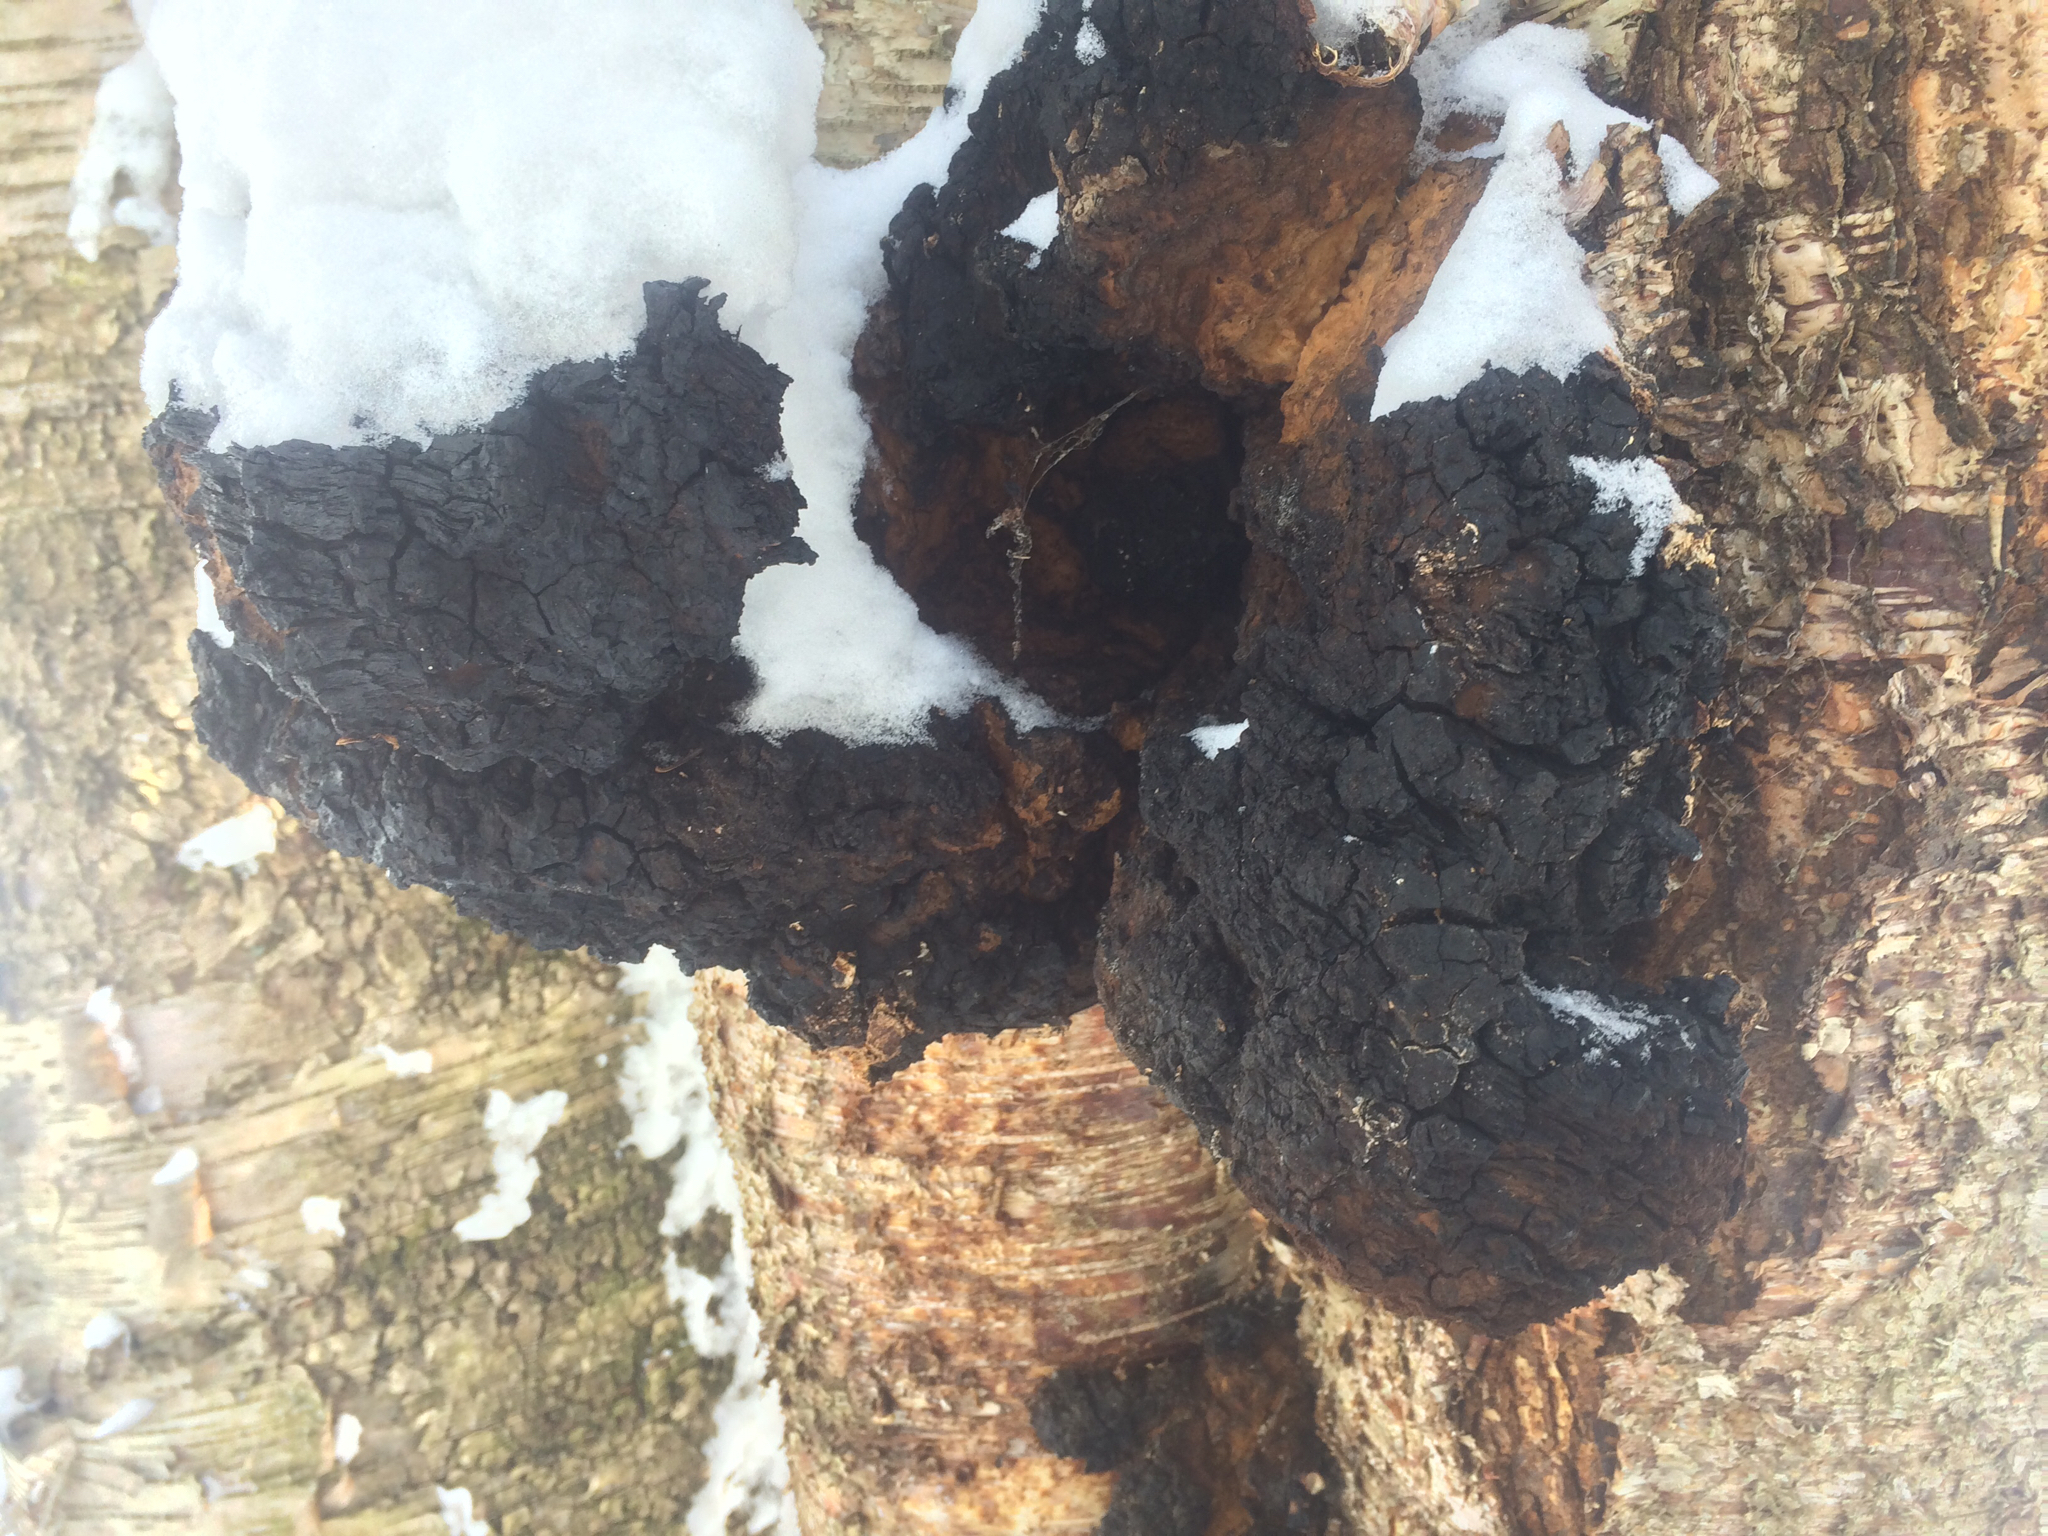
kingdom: Fungi
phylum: Basidiomycota
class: Agaricomycetes
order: Hymenochaetales
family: Hymenochaetaceae
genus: Inonotus
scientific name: Inonotus obliquus
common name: Chaga
